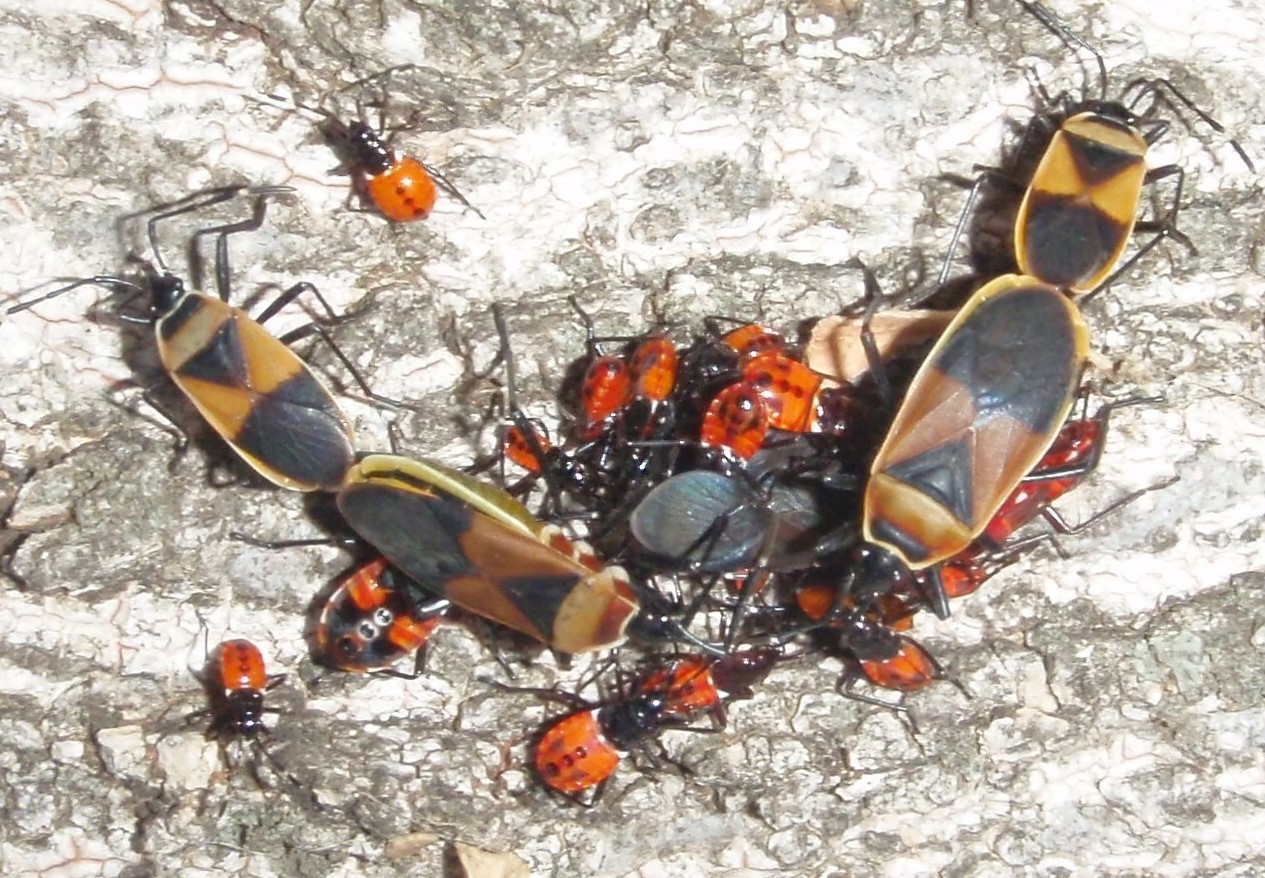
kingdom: Animalia
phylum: Arthropoda
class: Insecta
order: Hemiptera
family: Pyrrhocoridae
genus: Dindymus
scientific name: Dindymus
